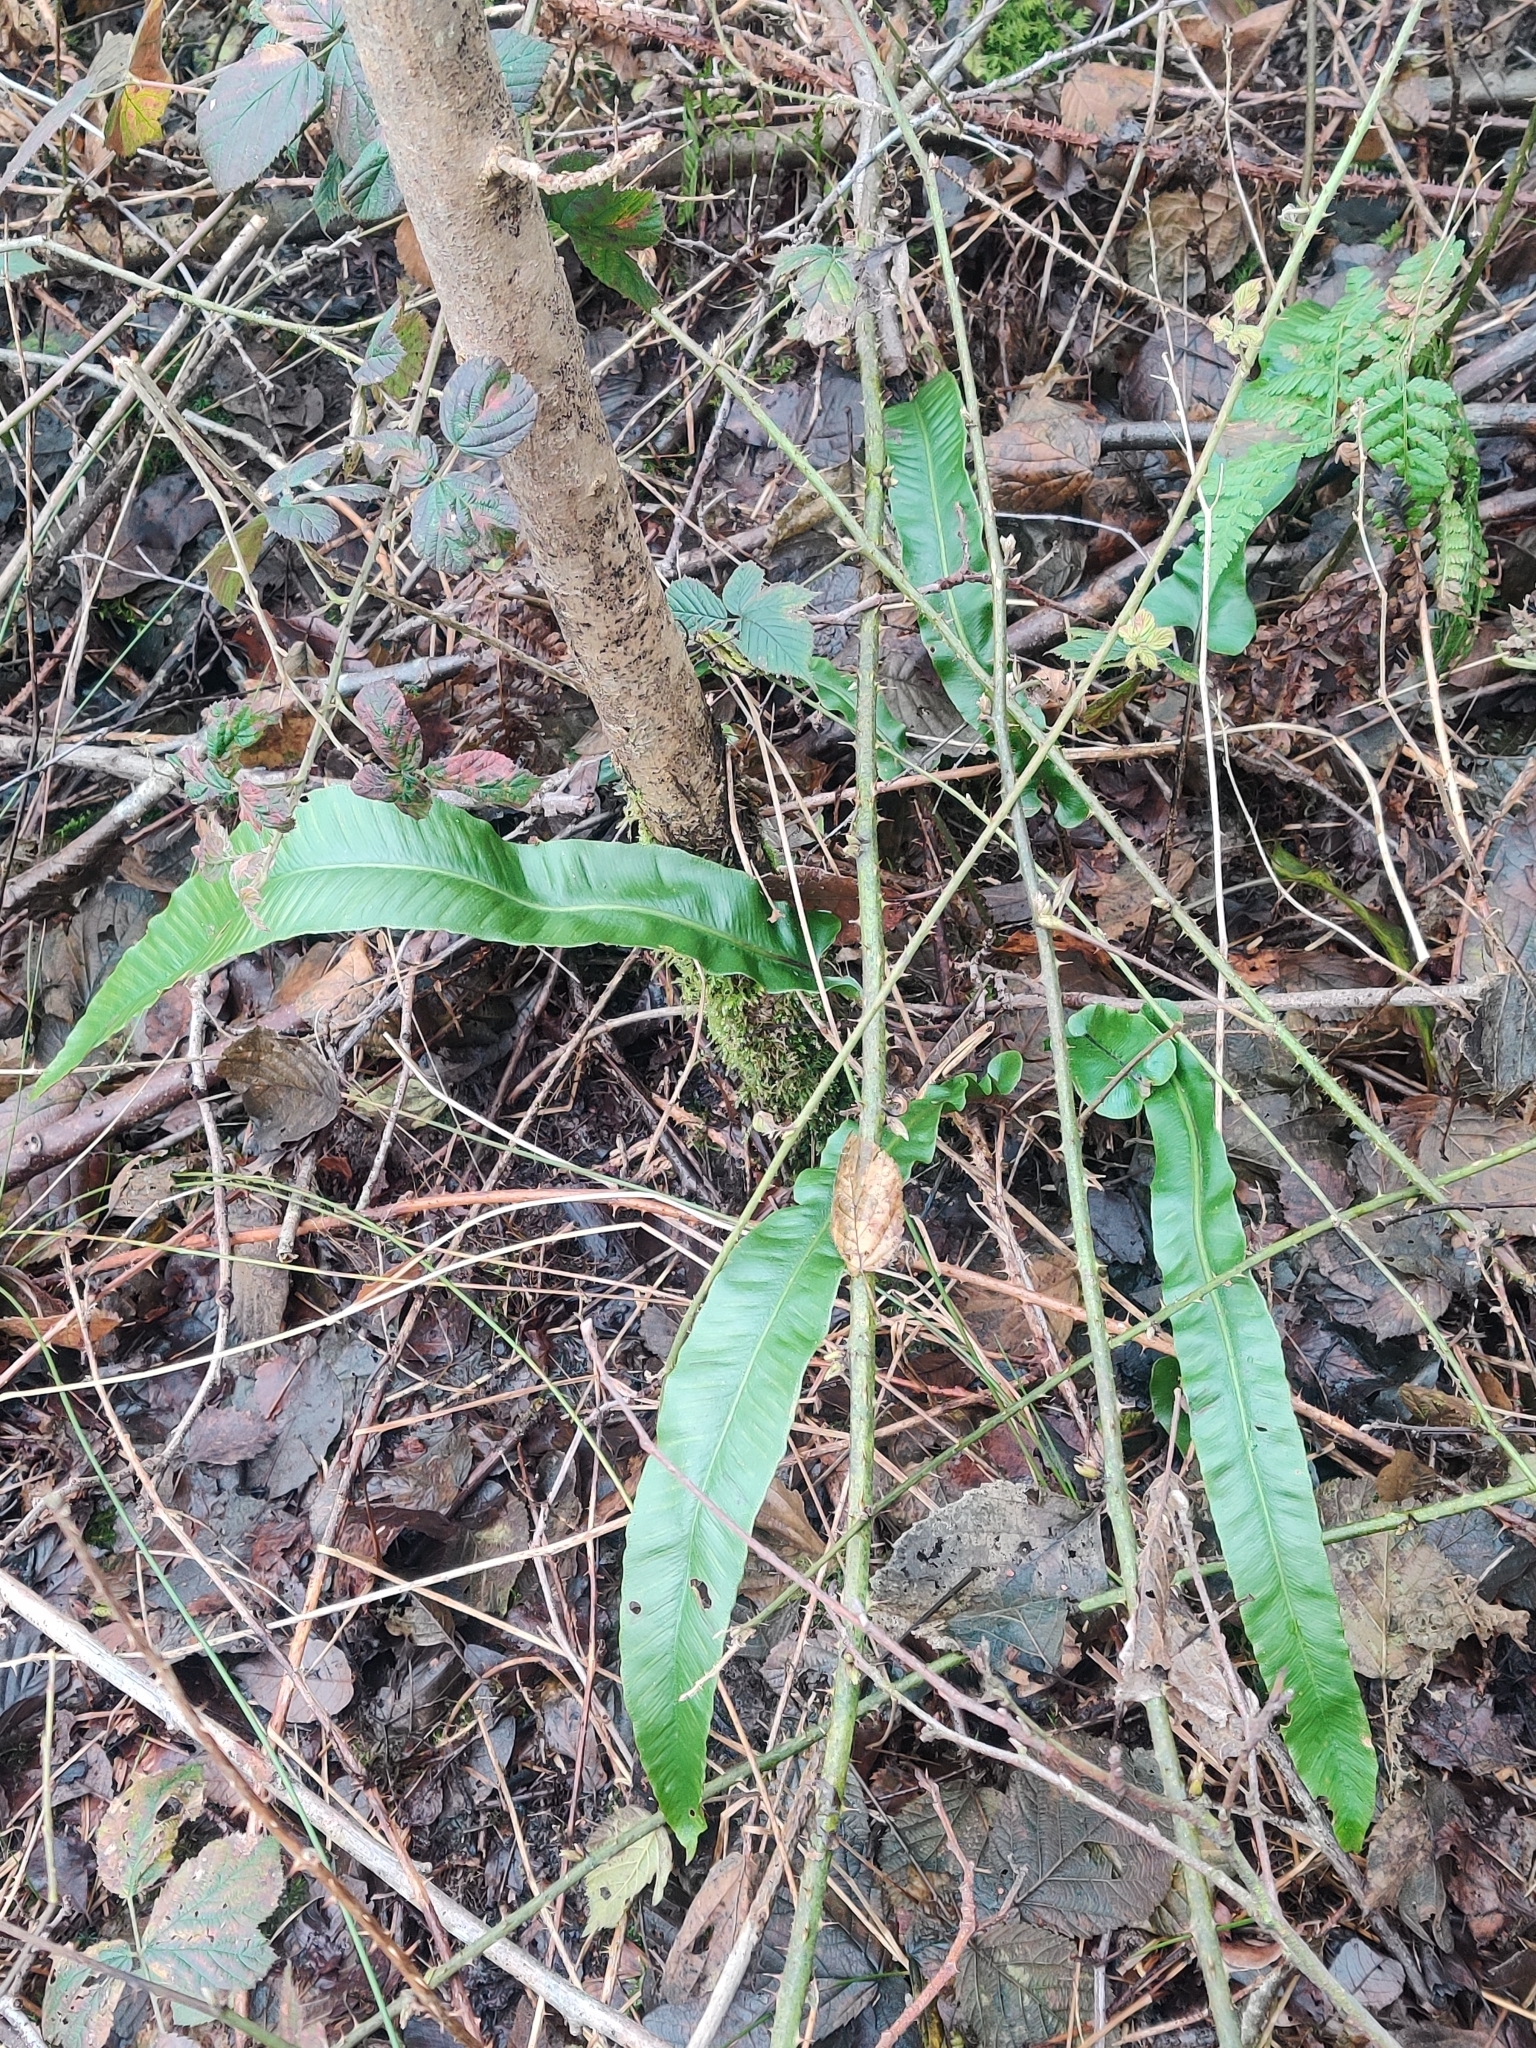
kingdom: Plantae
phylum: Tracheophyta
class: Polypodiopsida
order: Polypodiales
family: Aspleniaceae
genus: Asplenium
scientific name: Asplenium scolopendrium
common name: Hart's-tongue fern
